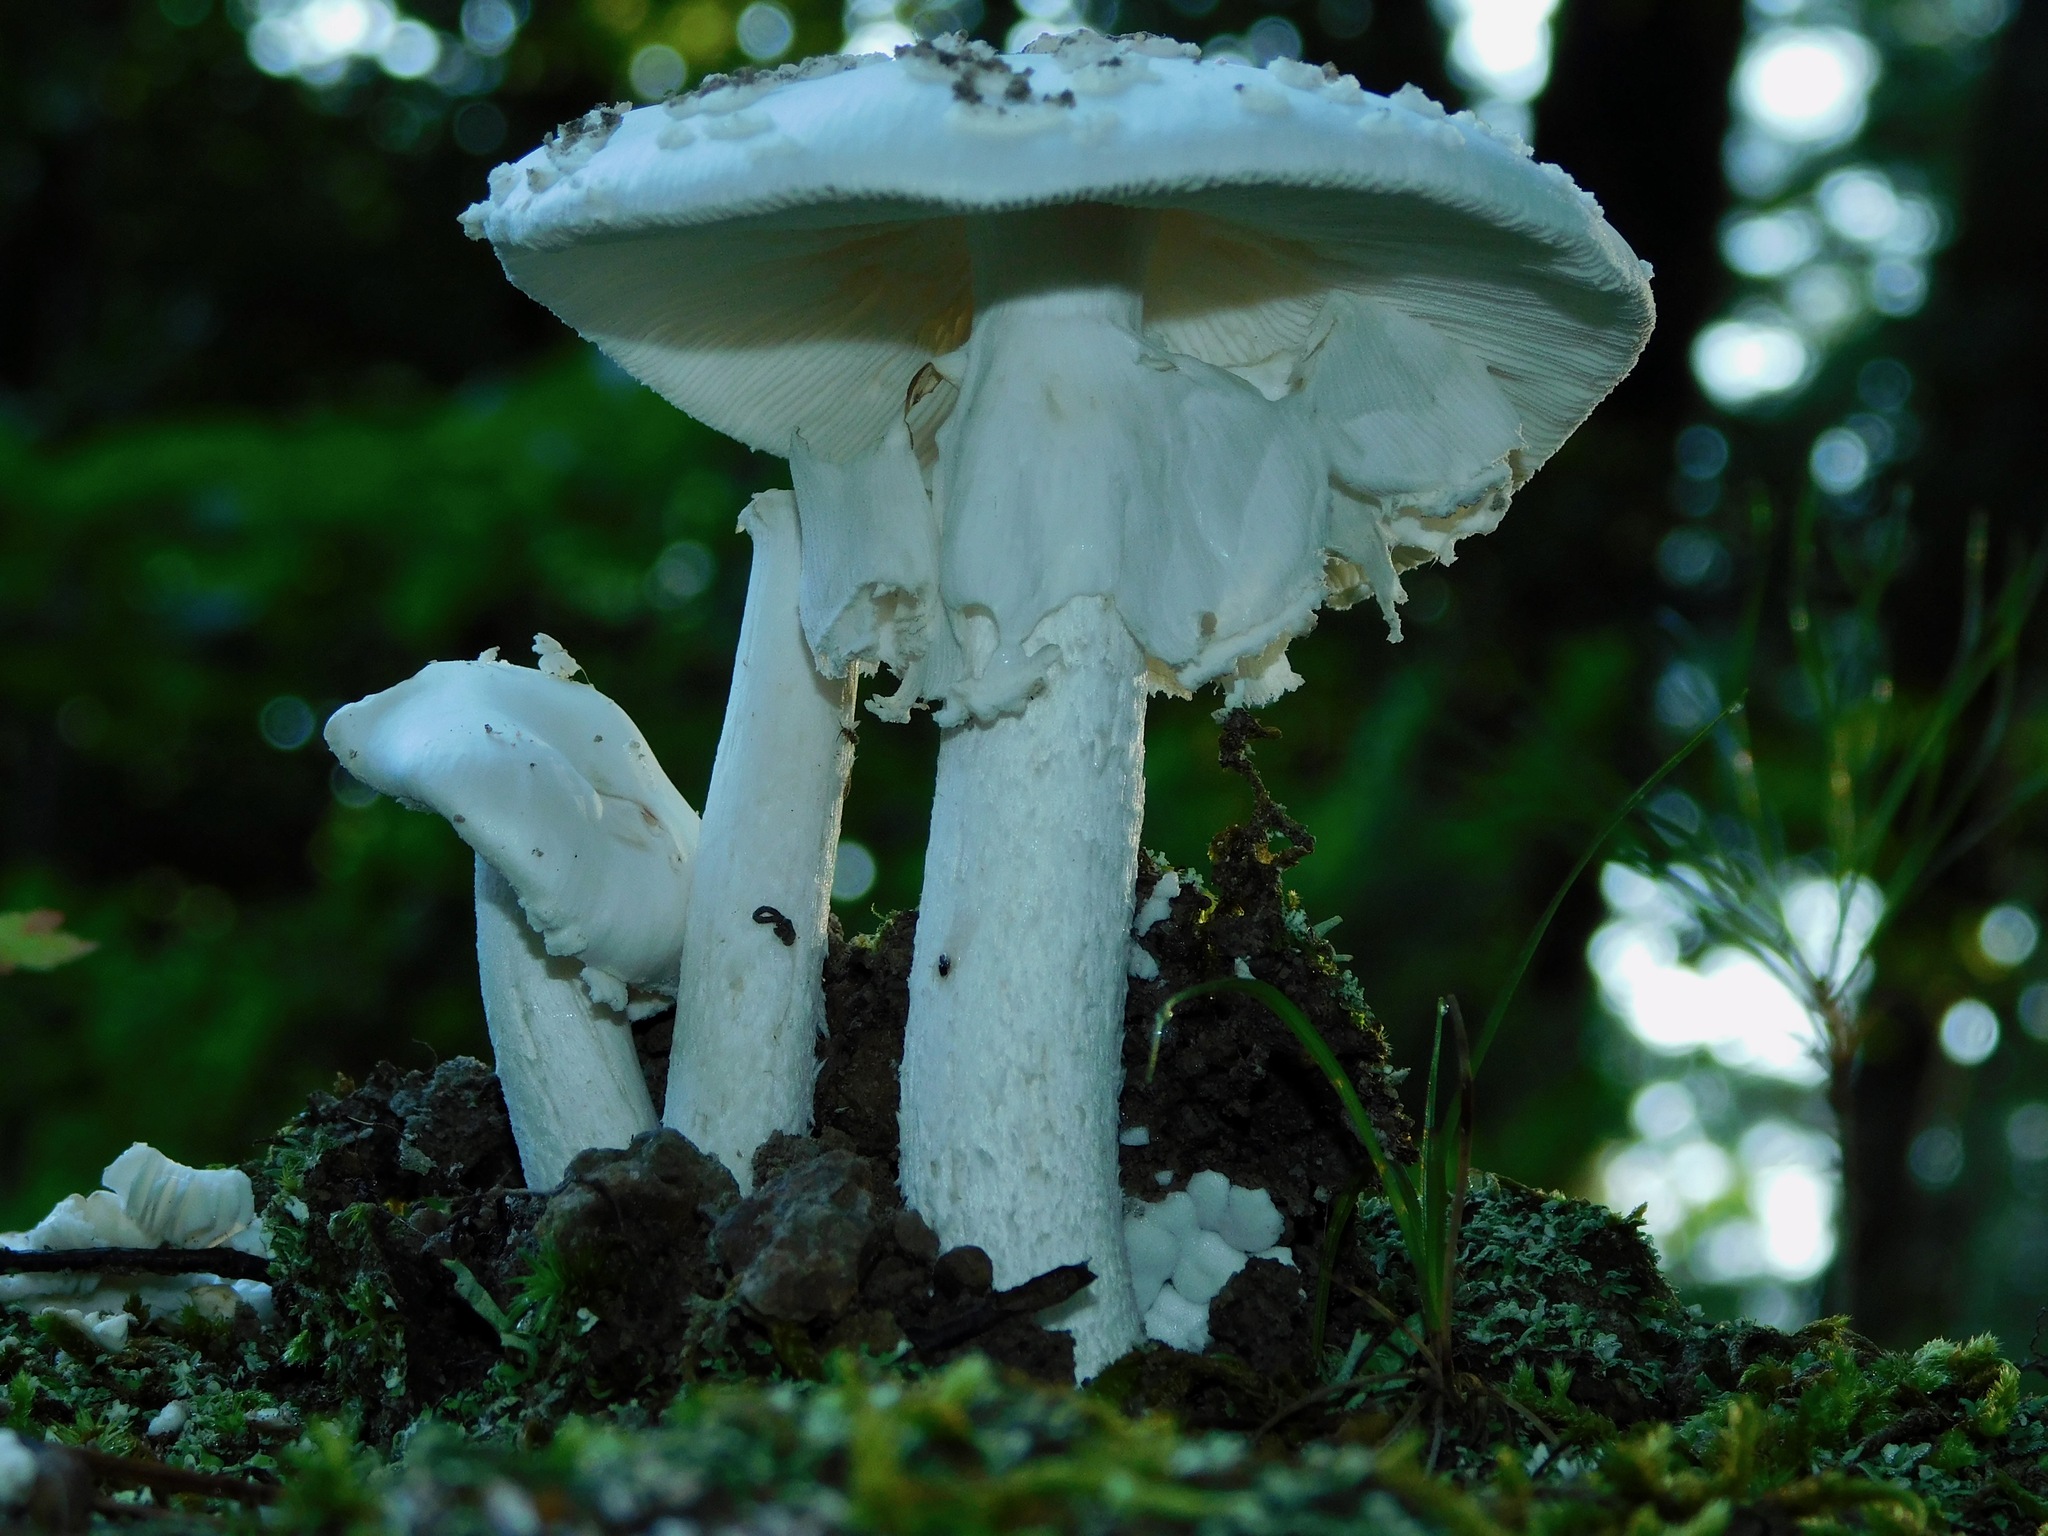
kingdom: Fungi
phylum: Basidiomycota
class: Agaricomycetes
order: Agaricales
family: Amanitaceae
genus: Amanita
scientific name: Amanita elliptosperma
